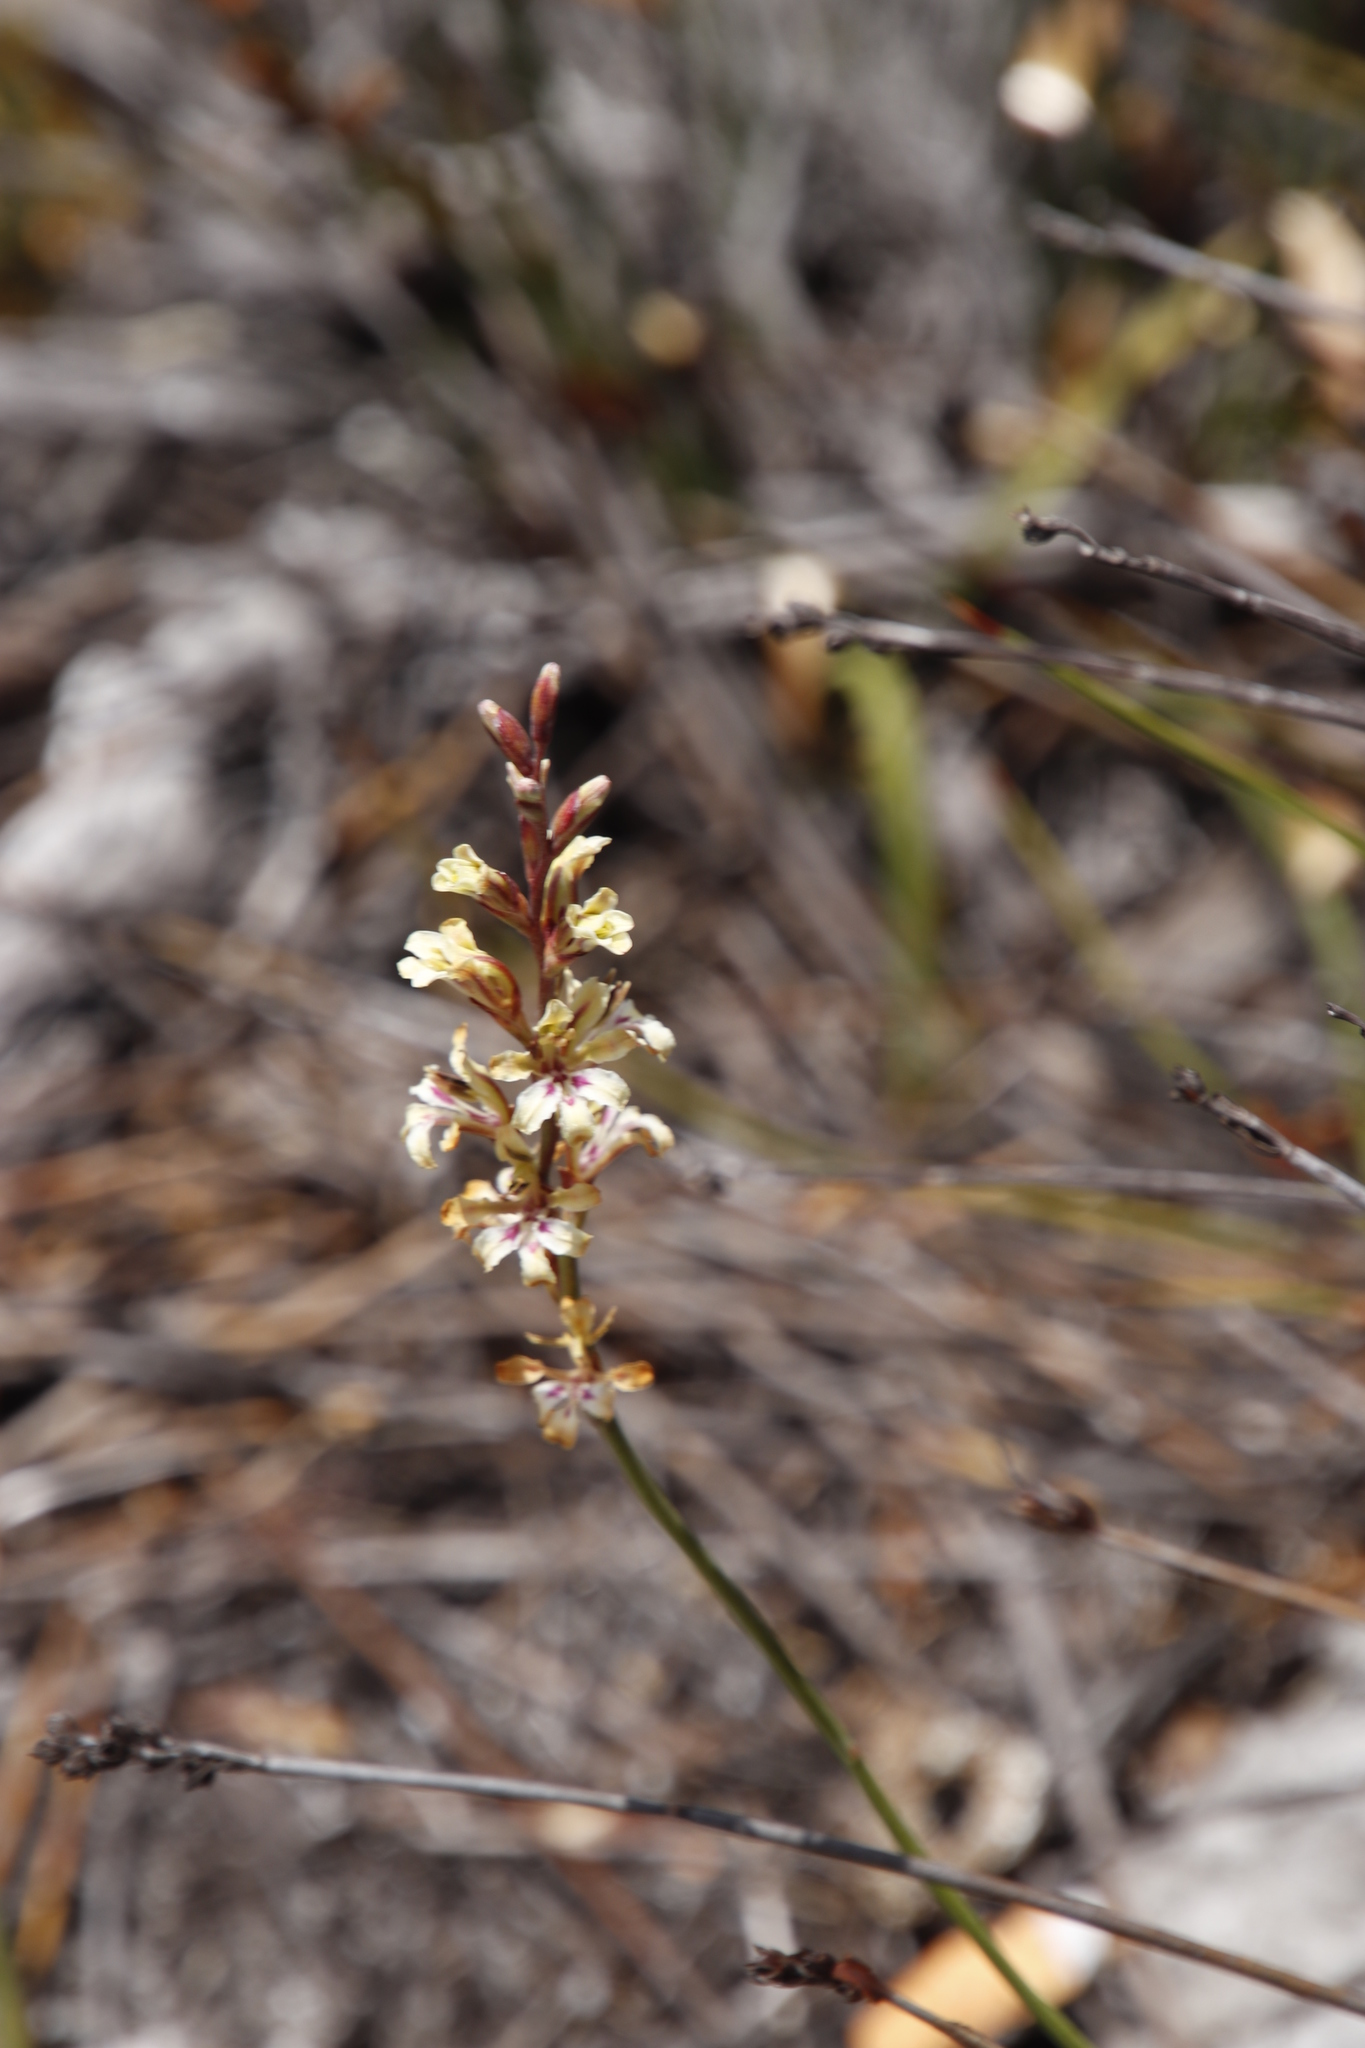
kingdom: Plantae
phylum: Tracheophyta
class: Liliopsida
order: Asparagales
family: Iridaceae
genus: Tritoniopsis
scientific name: Tritoniopsis unguicularis
